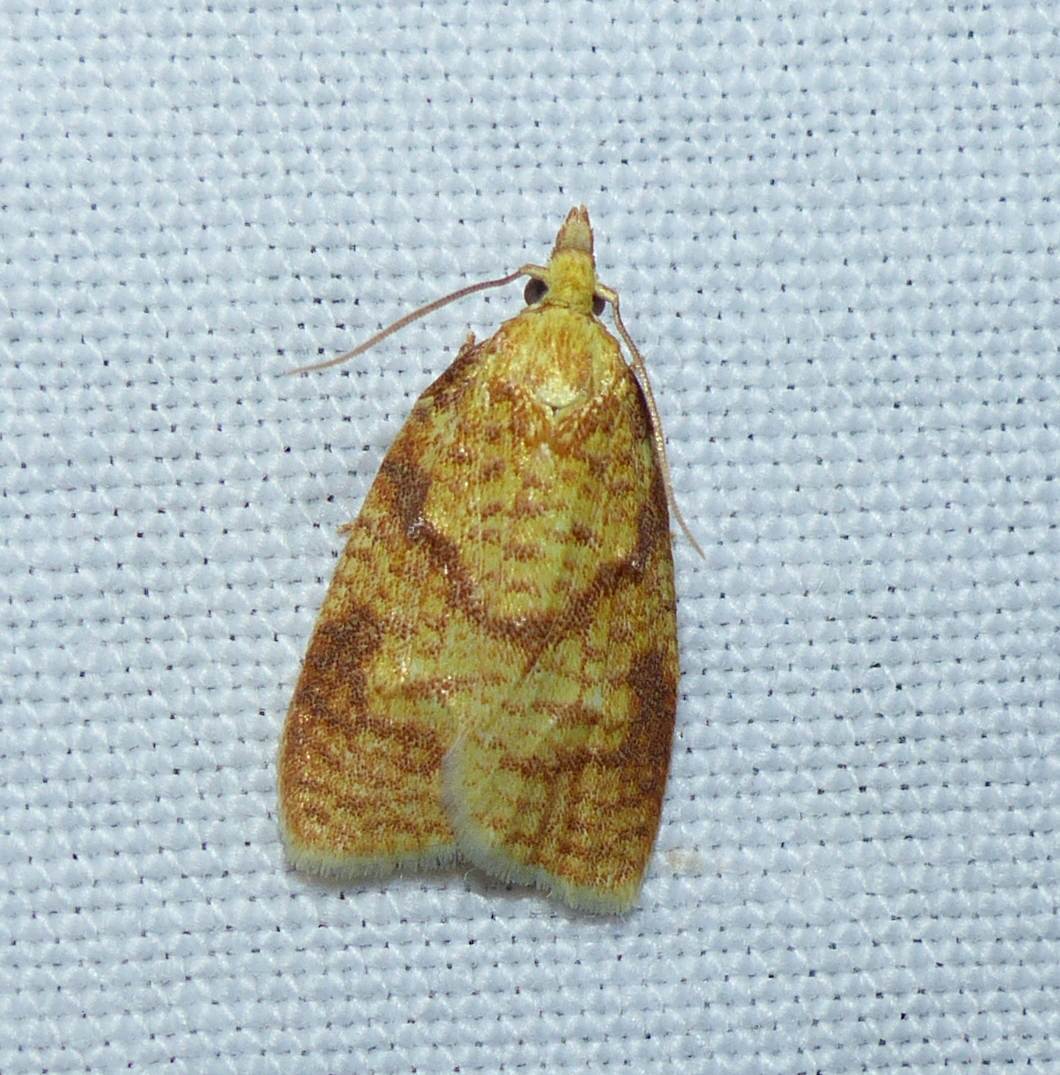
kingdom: Animalia
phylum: Arthropoda
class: Insecta
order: Lepidoptera
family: Tortricidae
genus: Cenopis
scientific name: Cenopis pettitana
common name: Maple-basswood leafroller moth
